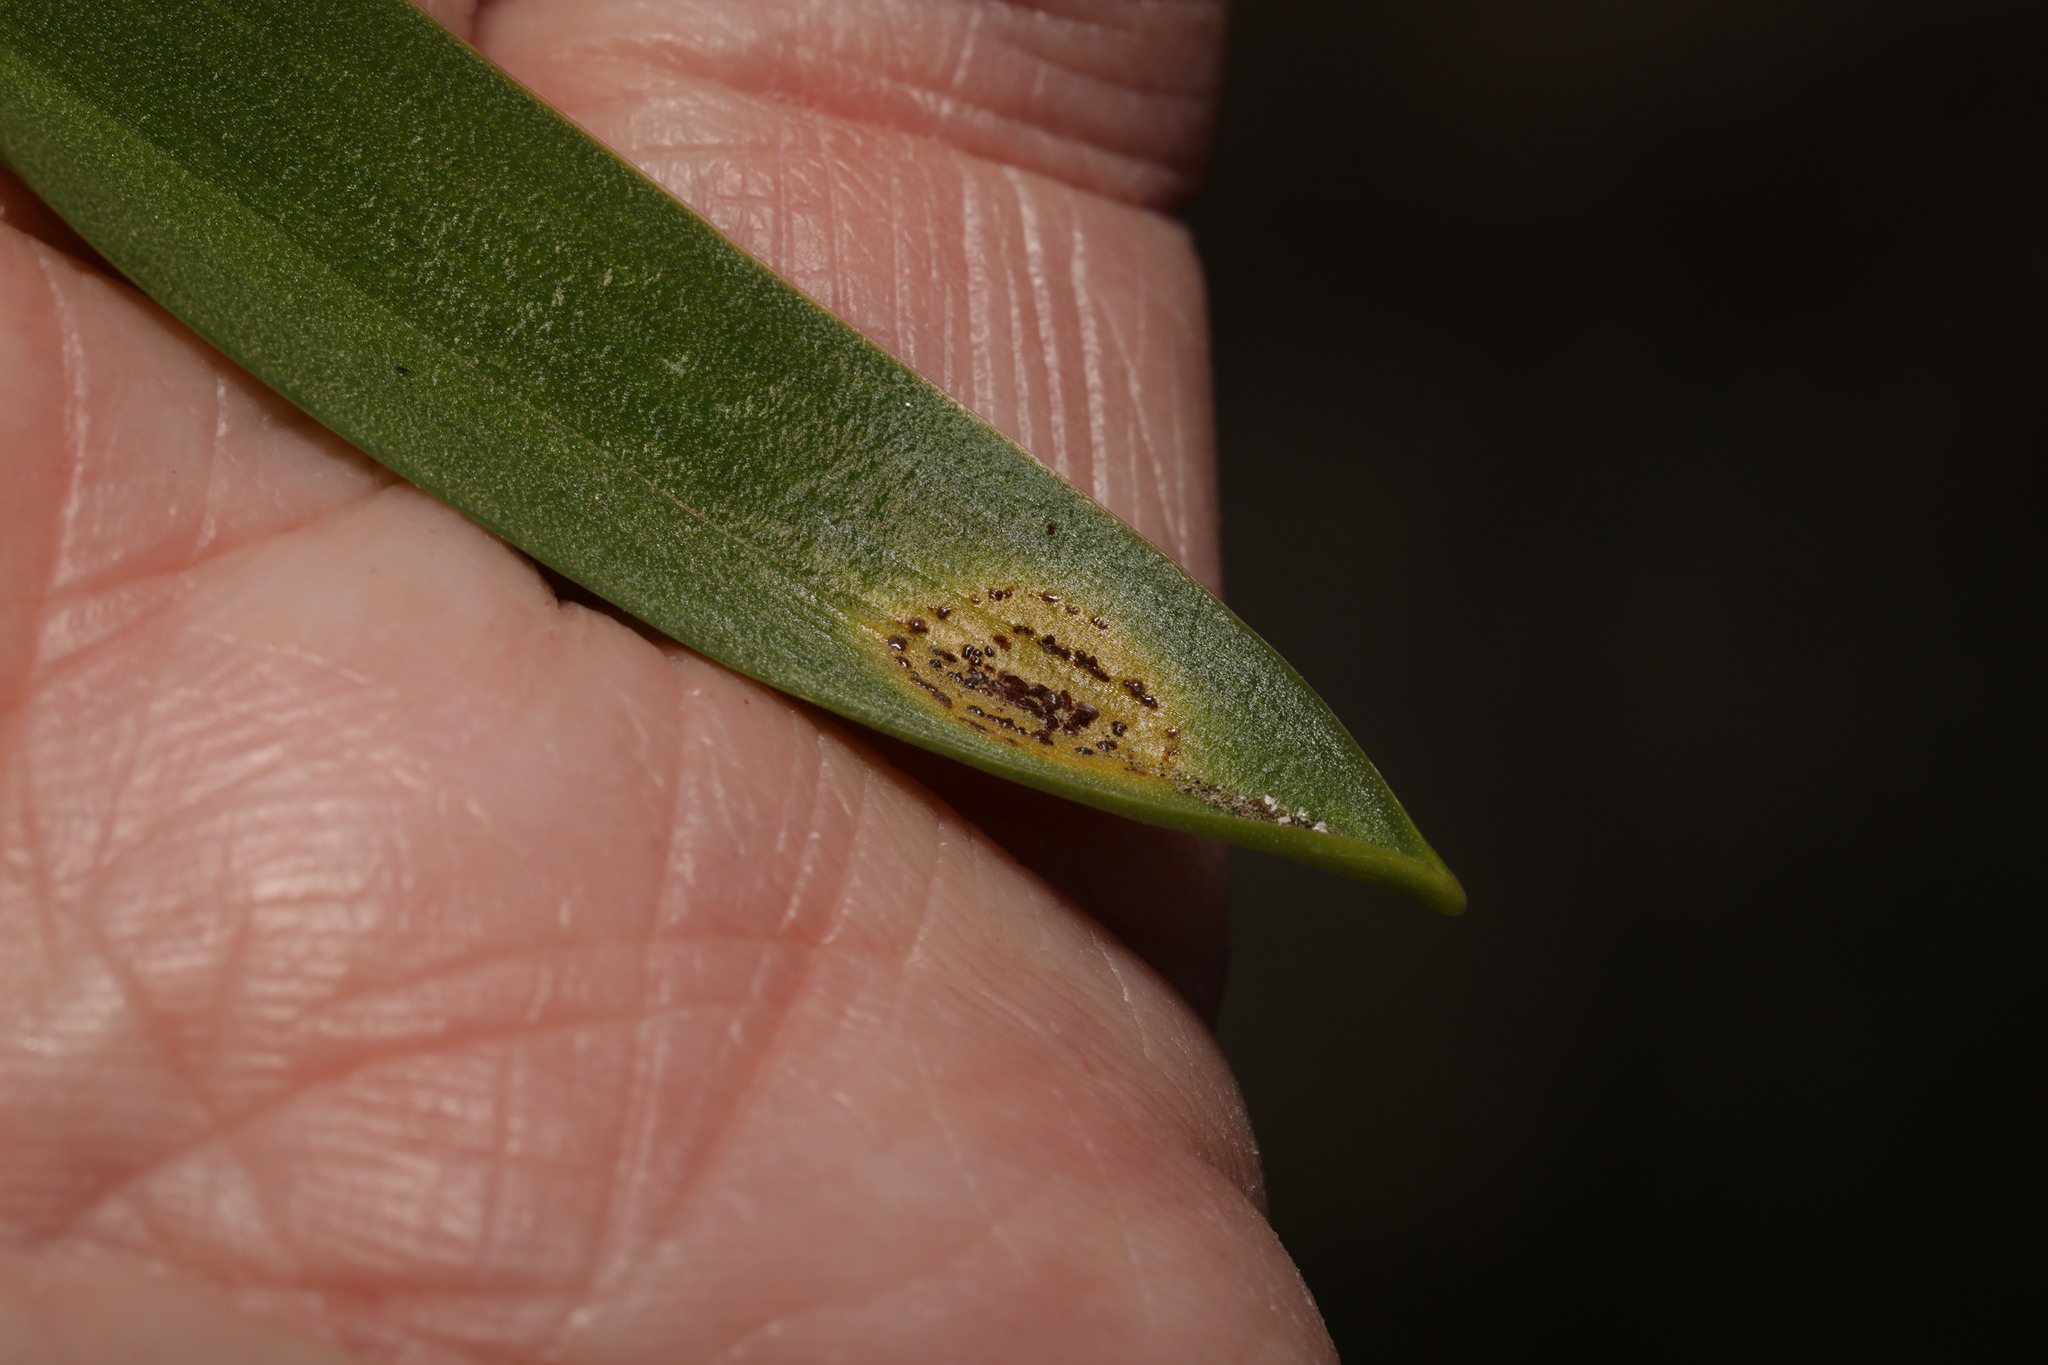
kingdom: Fungi
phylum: Basidiomycota
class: Pucciniomycetes
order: Pucciniales
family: Pucciniaceae
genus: Uromyces
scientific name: Uromyces hyacinthi
